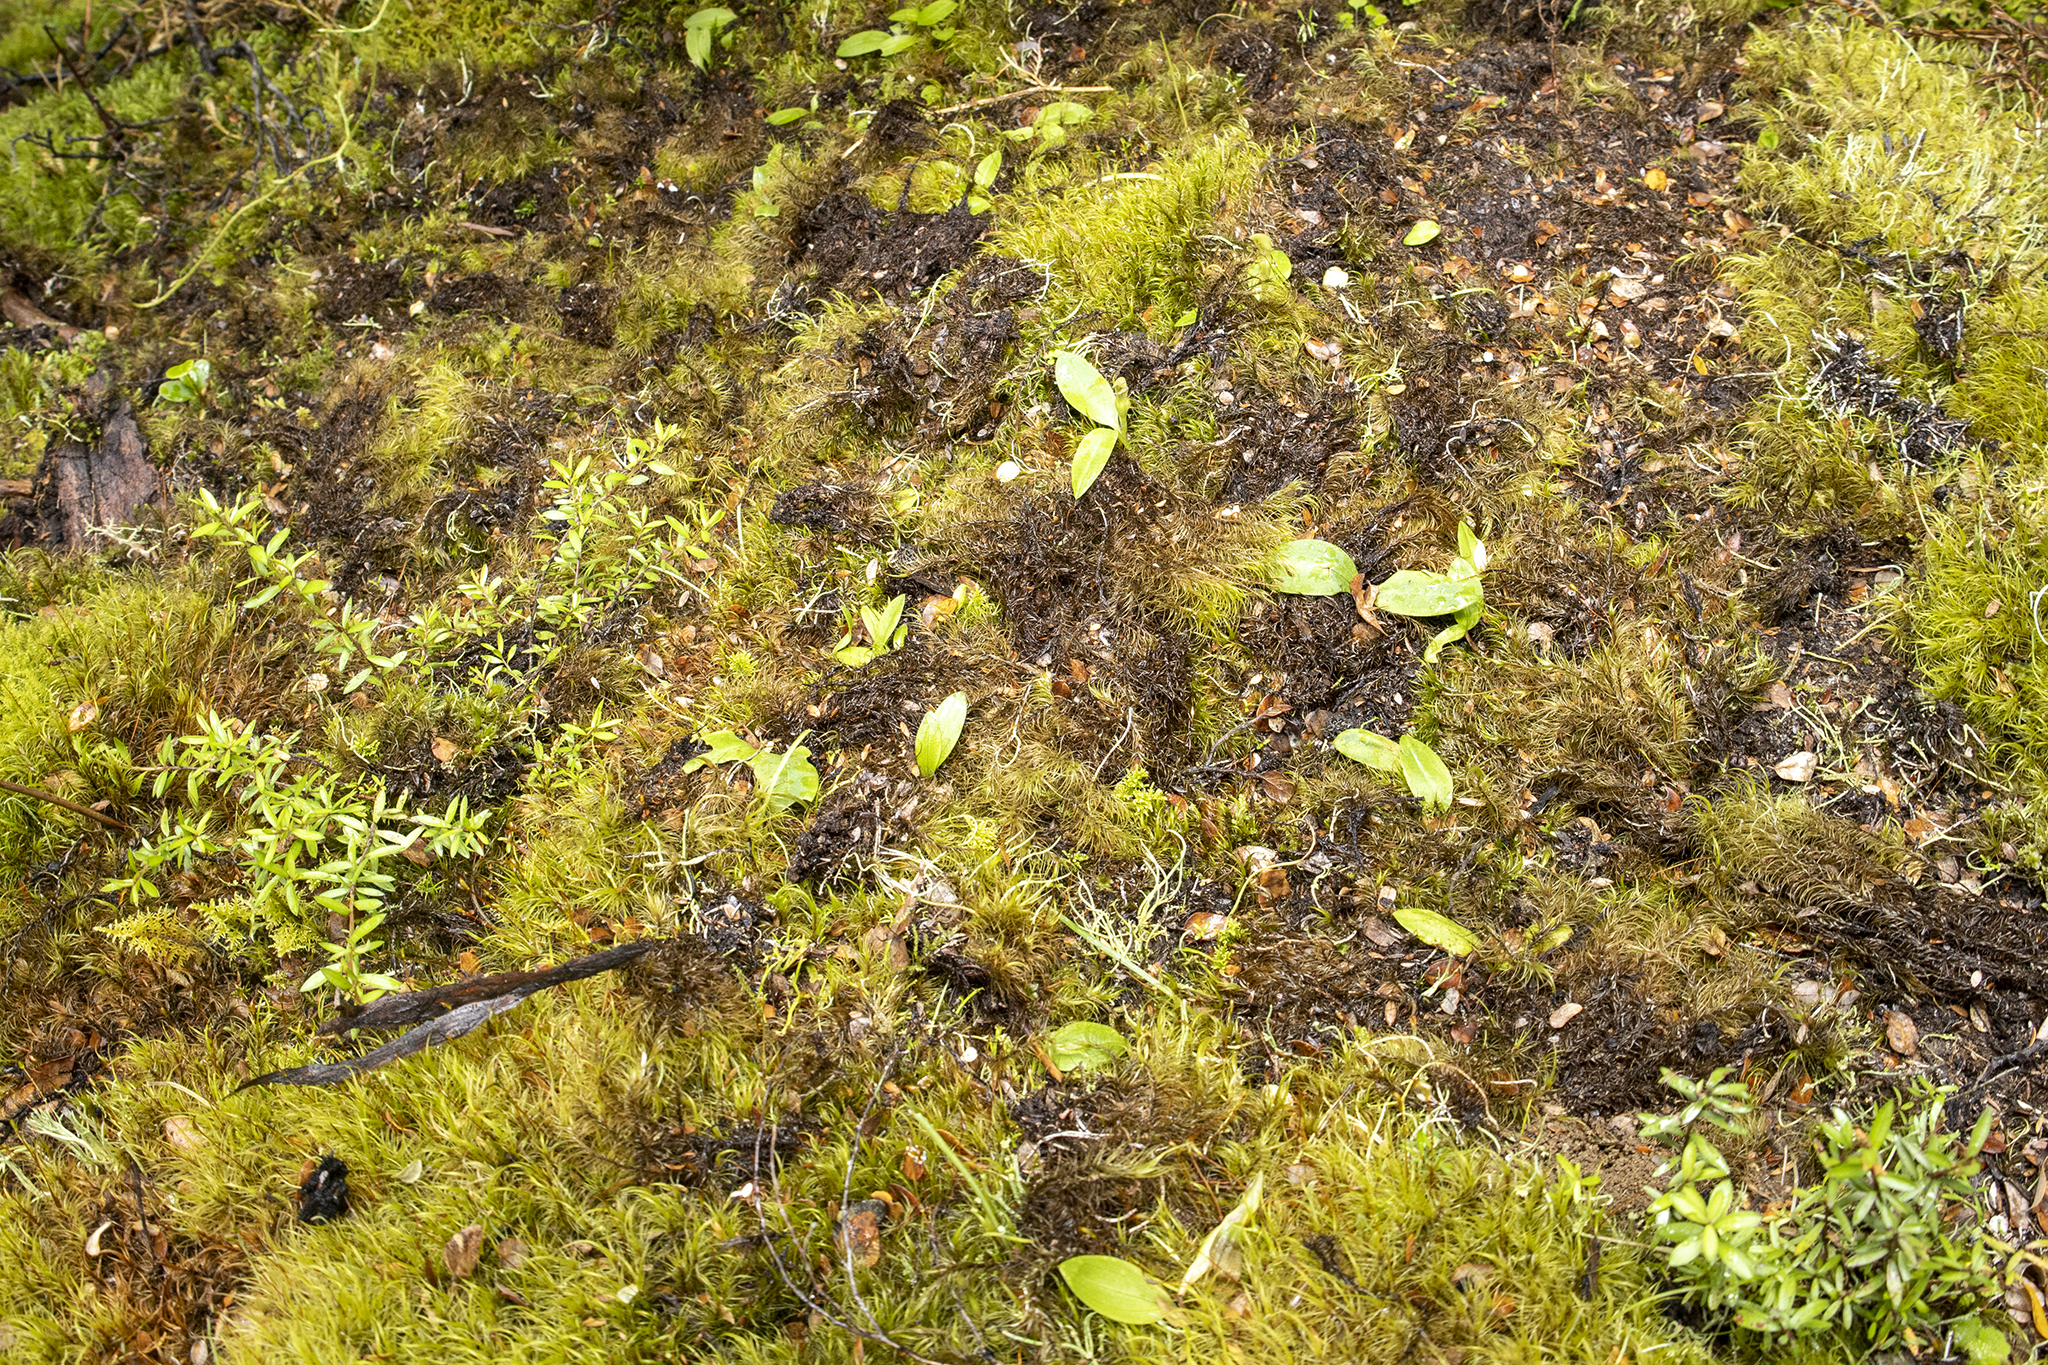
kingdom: Plantae
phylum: Tracheophyta
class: Liliopsida
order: Asparagales
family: Orchidaceae
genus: Chiloglottis
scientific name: Chiloglottis cornuta
